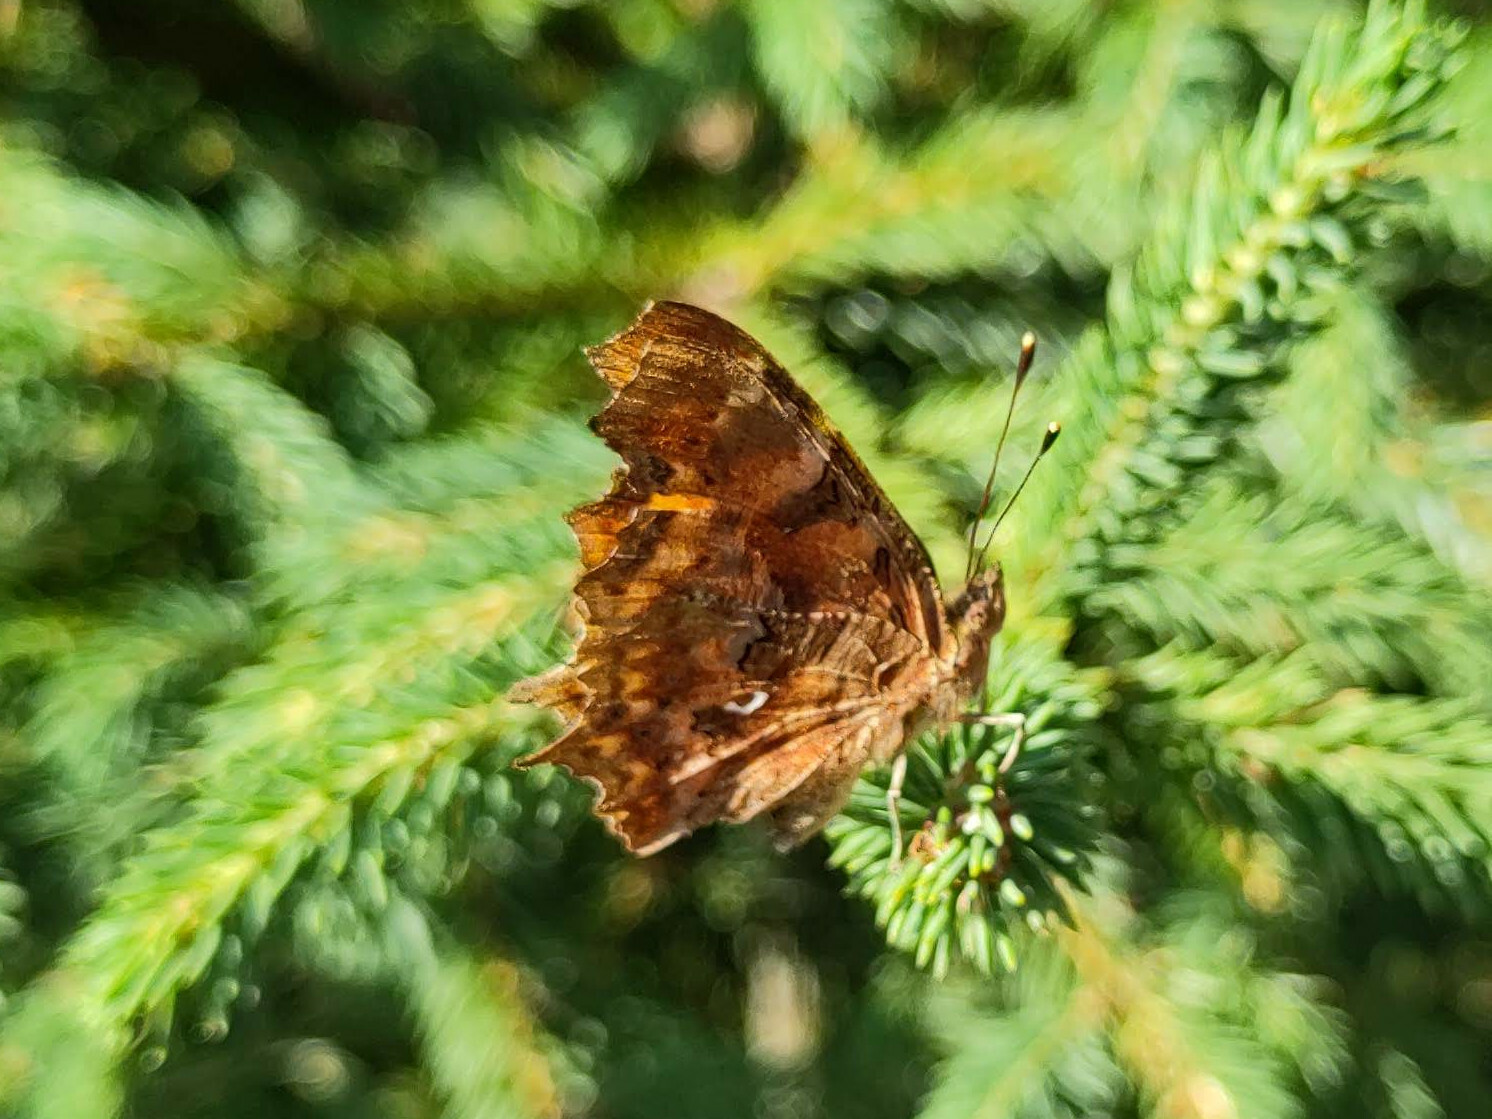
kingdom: Animalia
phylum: Arthropoda
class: Insecta
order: Lepidoptera
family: Nymphalidae
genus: Polygonia
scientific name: Polygonia c-album
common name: Comma
